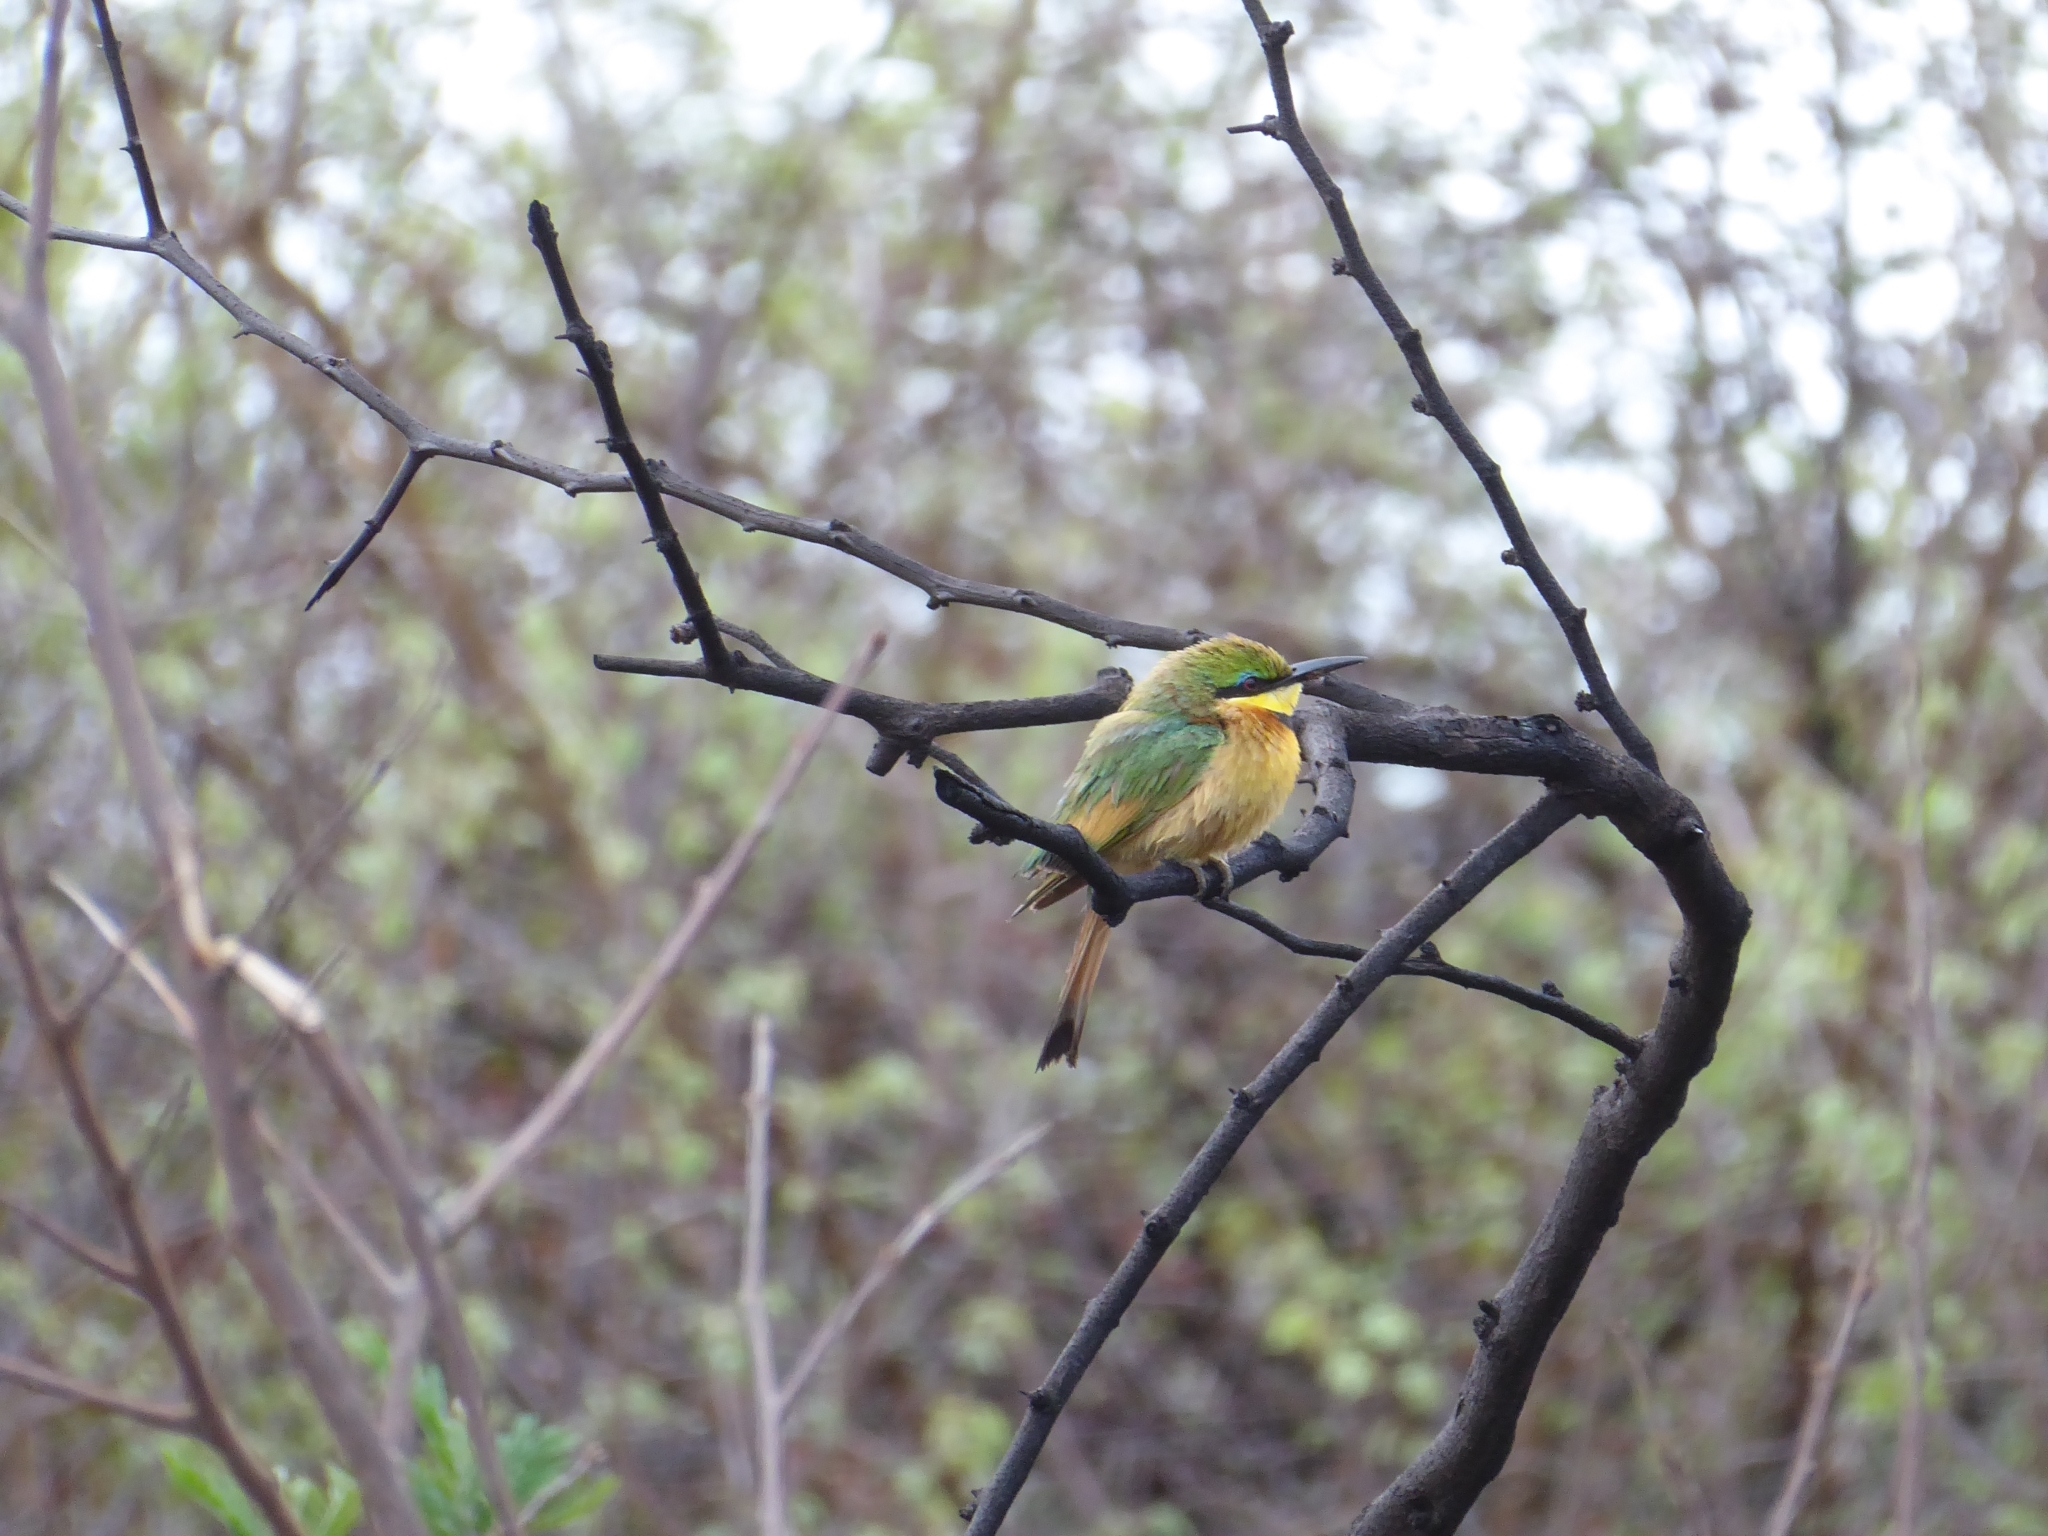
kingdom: Animalia
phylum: Chordata
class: Aves
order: Coraciiformes
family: Meropidae
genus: Merops
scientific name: Merops pusillus
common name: Little bee-eater
